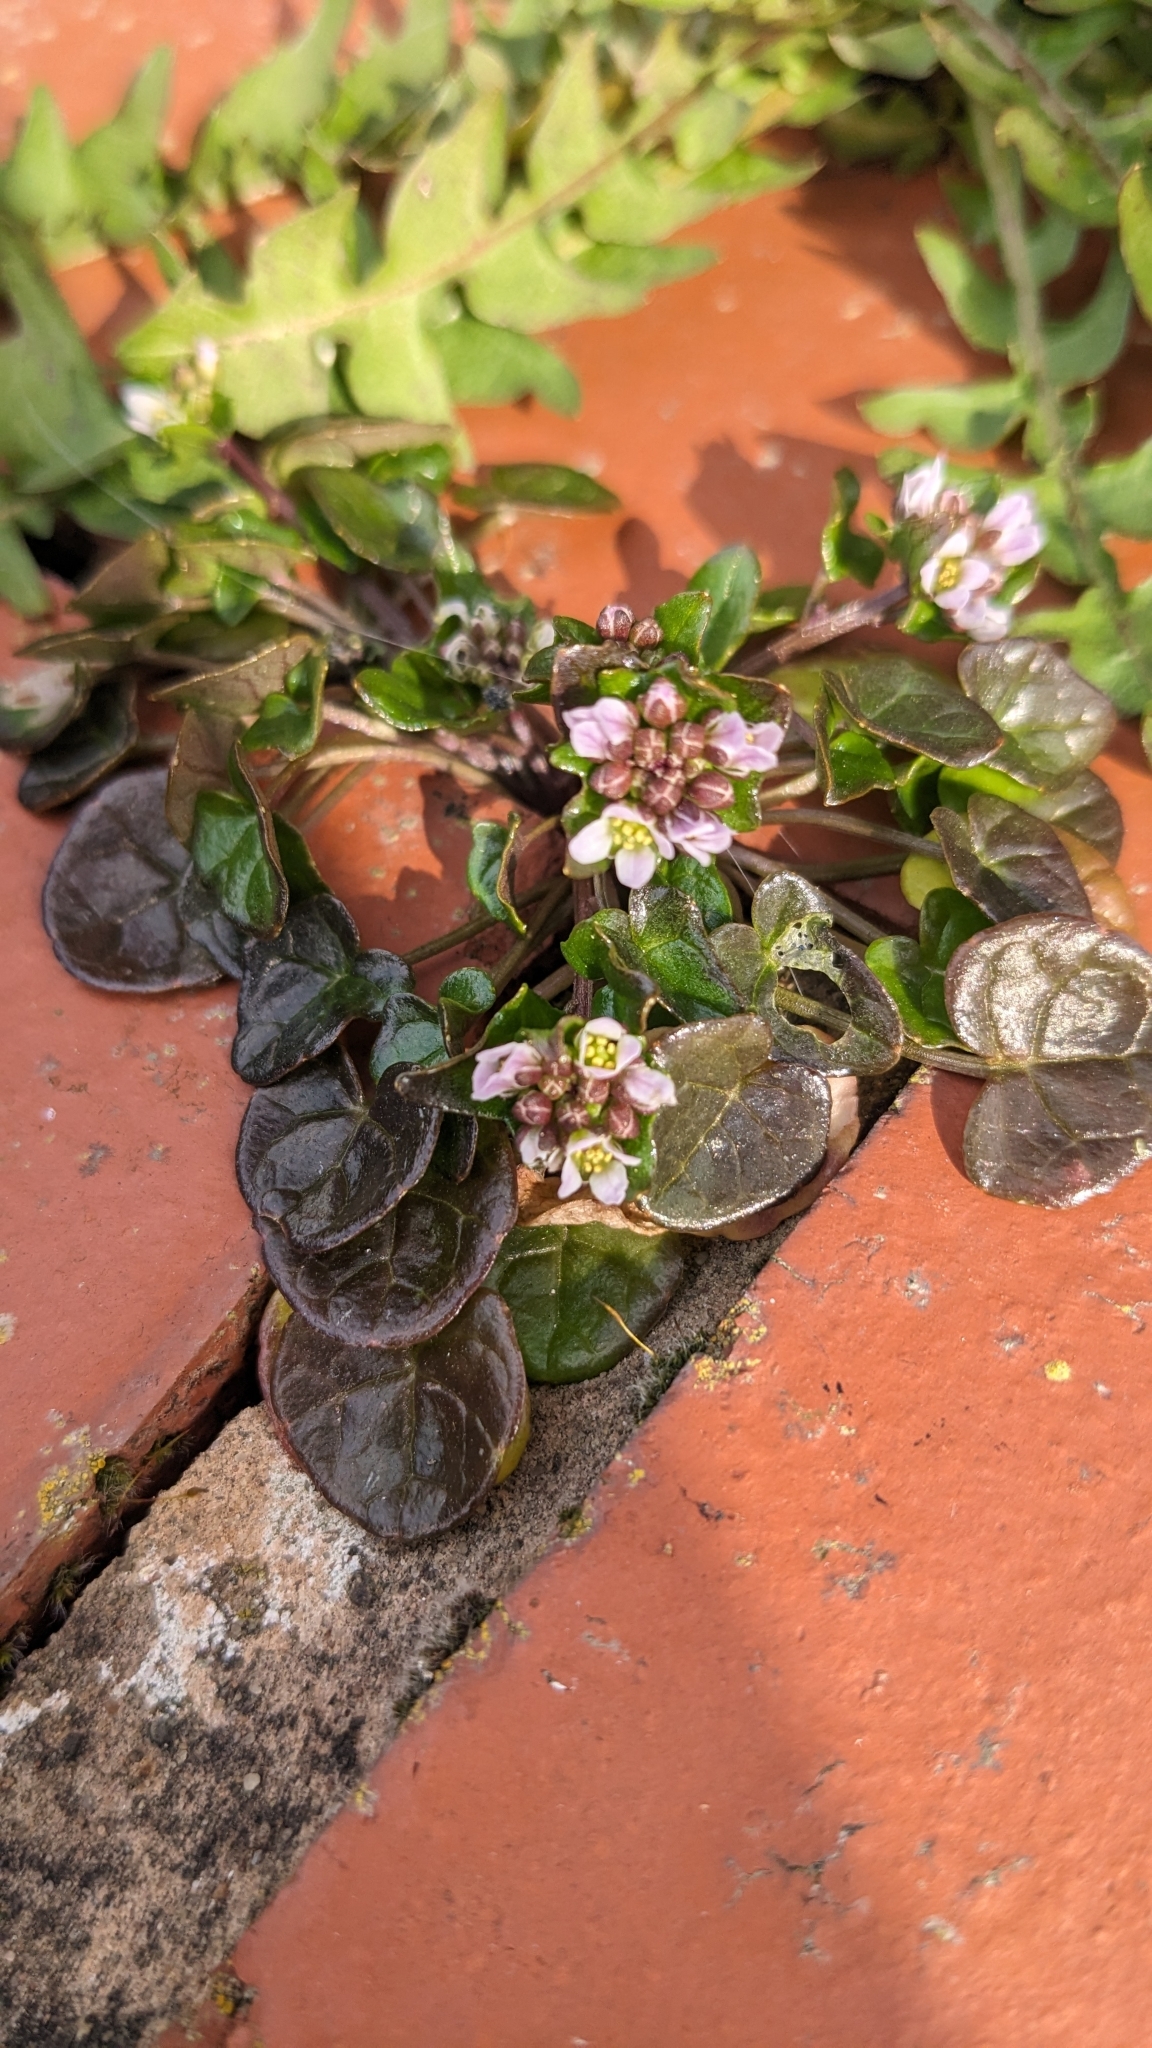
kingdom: Plantae
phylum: Tracheophyta
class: Magnoliopsida
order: Brassicales
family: Brassicaceae
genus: Cochlearia
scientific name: Cochlearia danica
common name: Early scurvygrass
